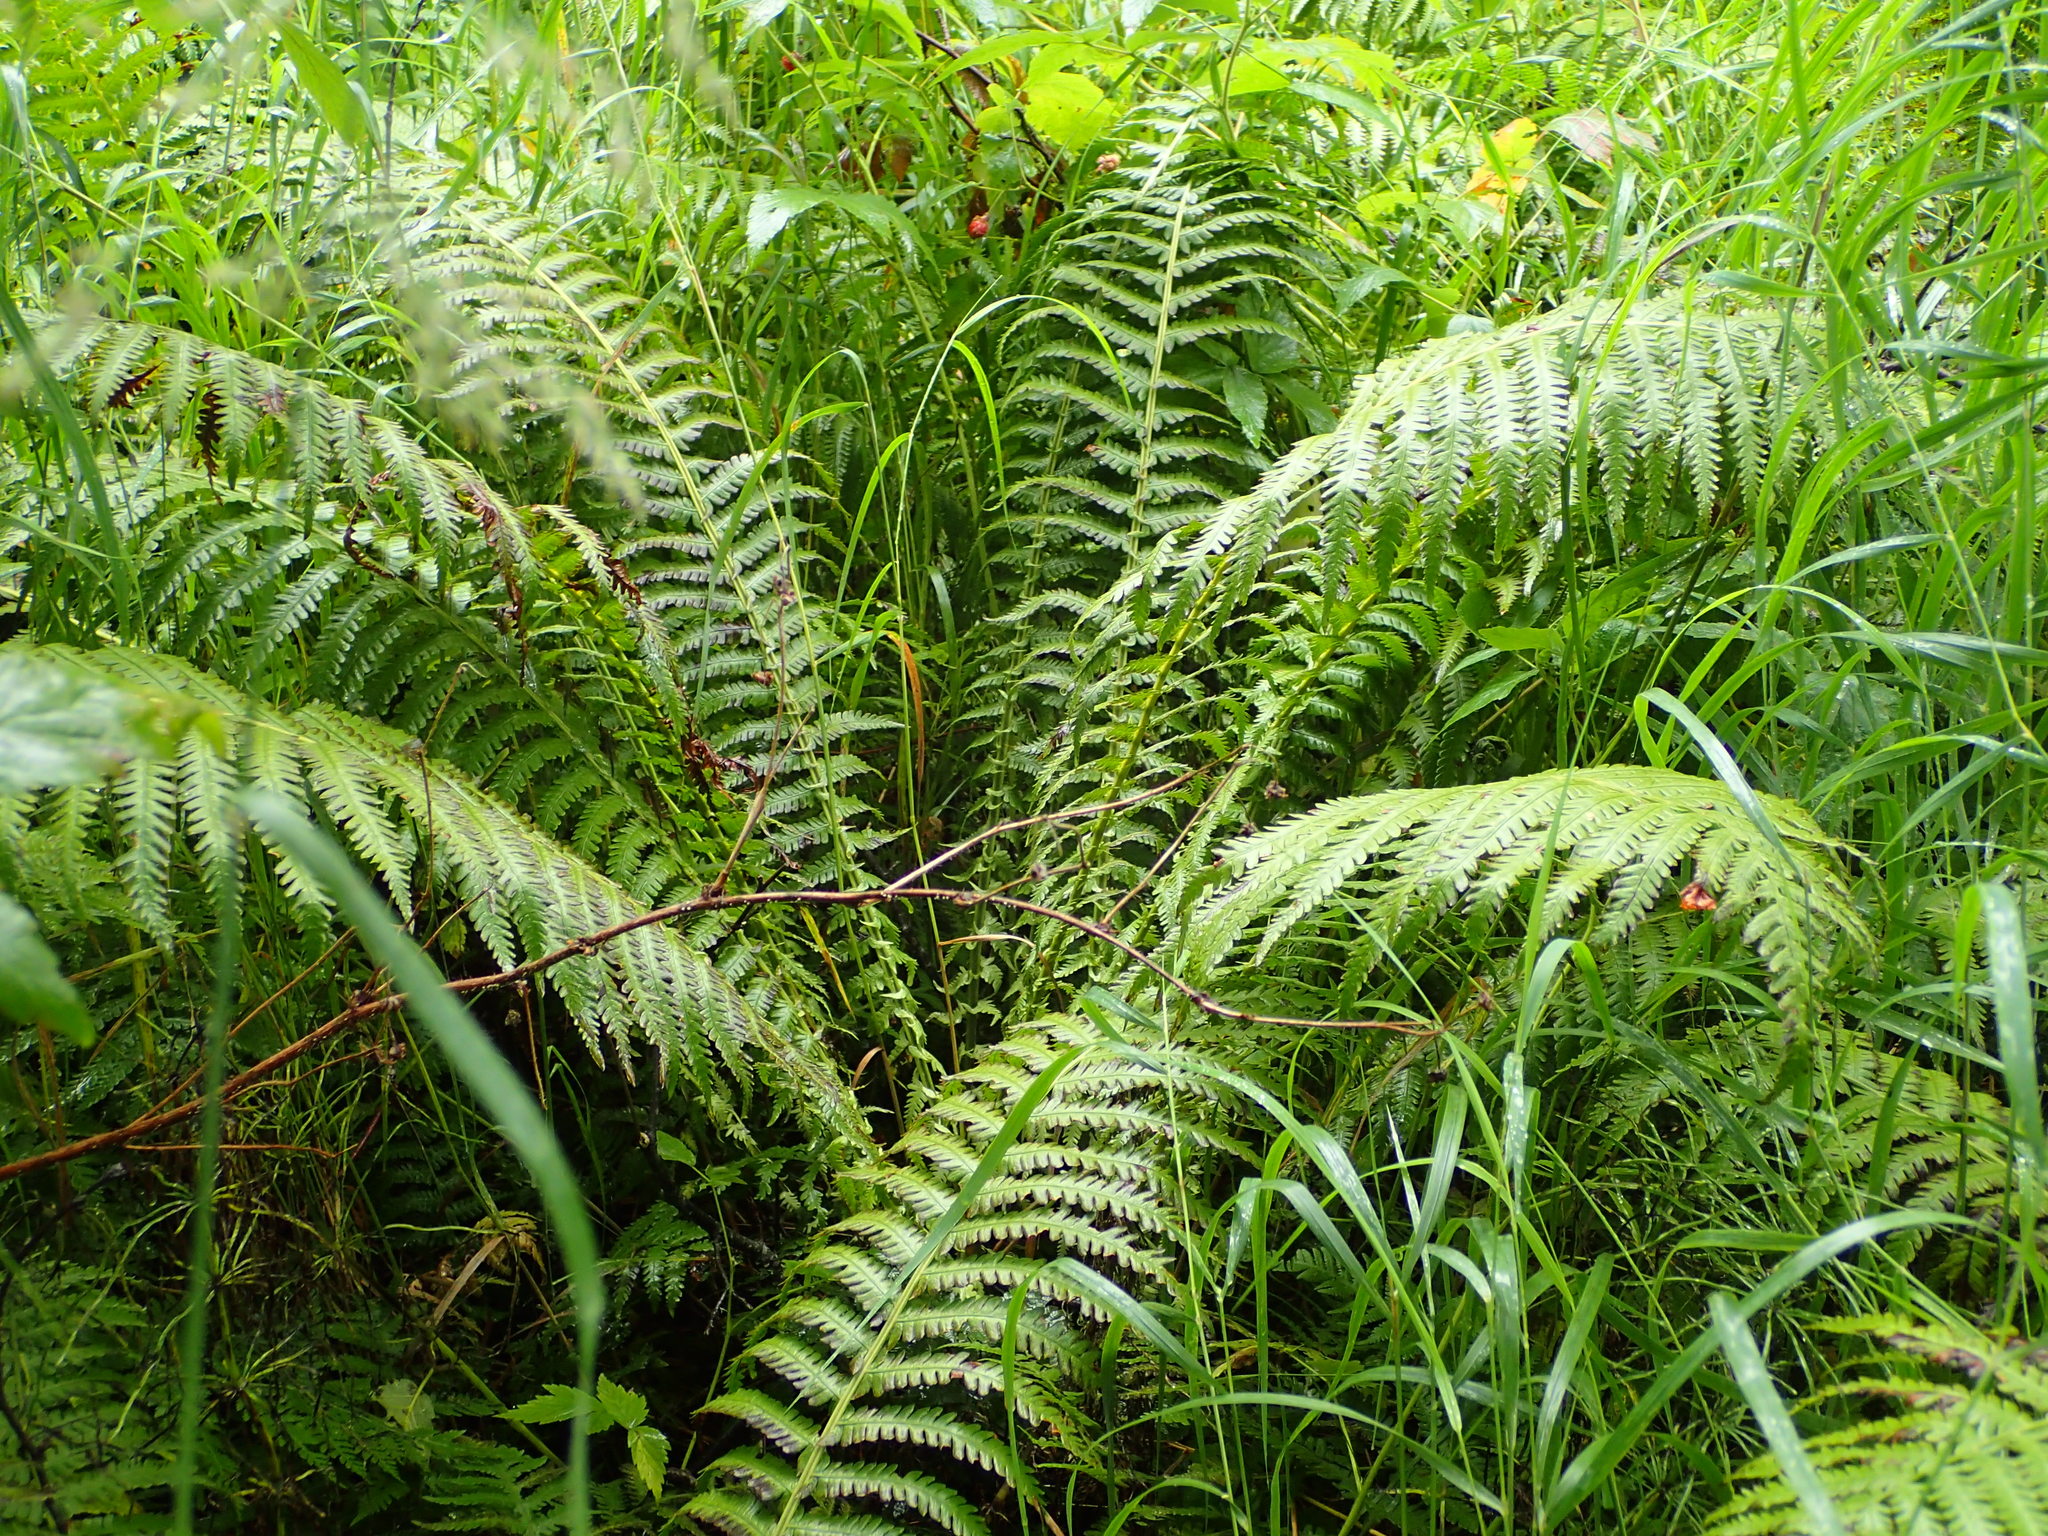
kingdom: Plantae
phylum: Tracheophyta
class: Polypodiopsida
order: Polypodiales
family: Onocleaceae
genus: Matteuccia
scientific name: Matteuccia struthiopteris
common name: Ostrich fern
